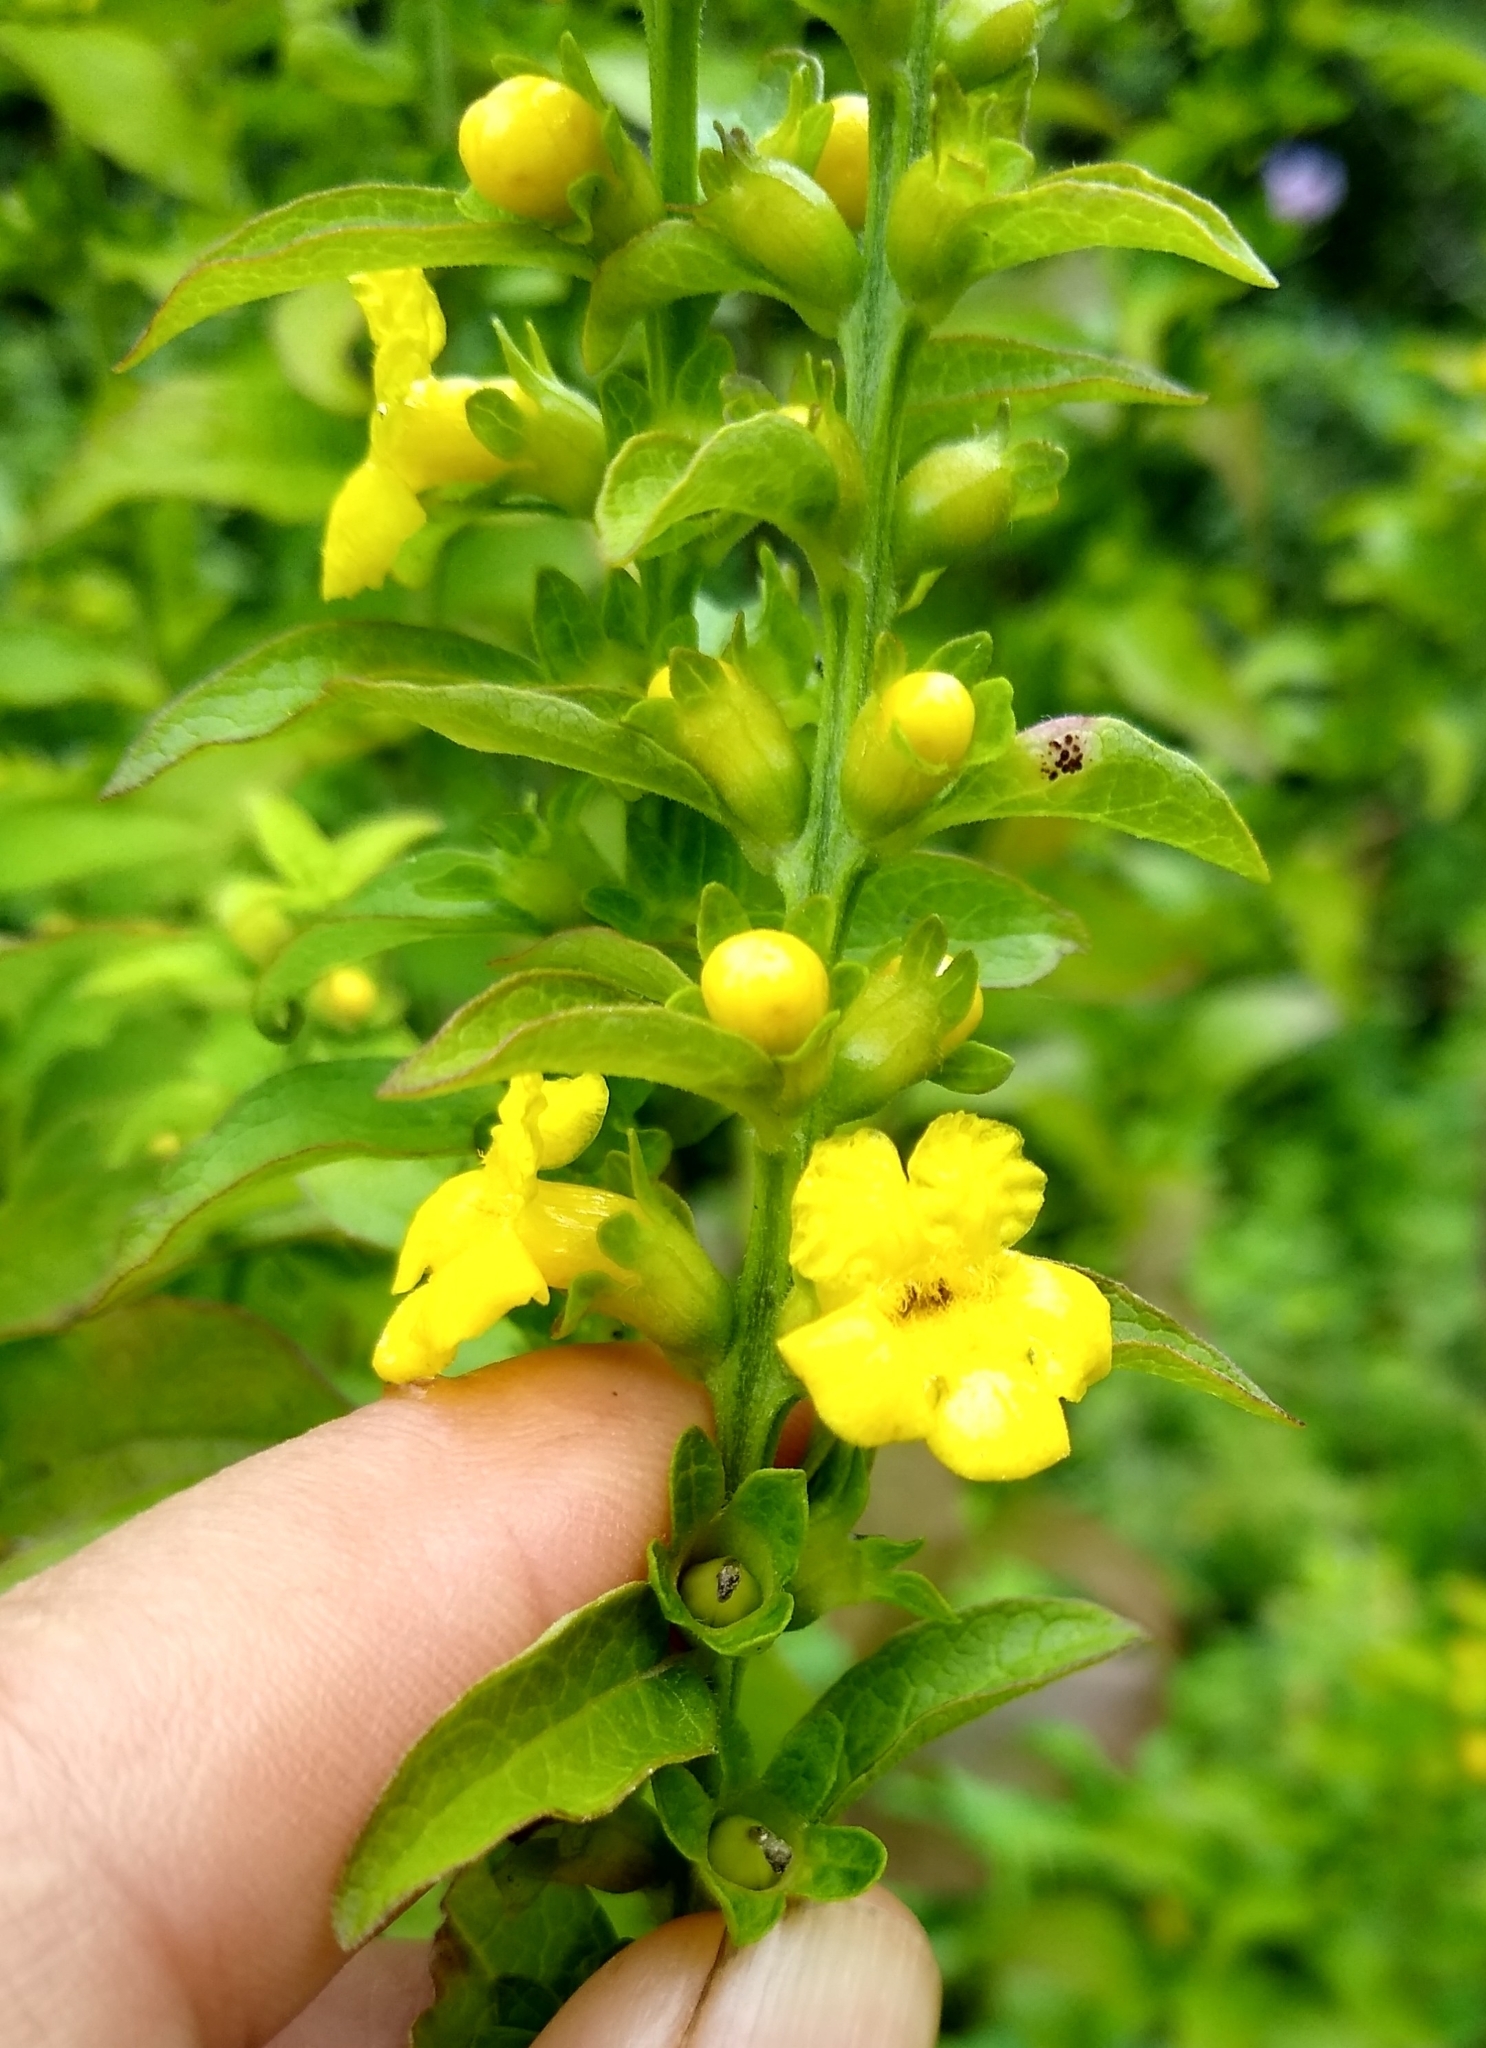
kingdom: Plantae
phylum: Tracheophyta
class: Magnoliopsida
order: Lamiales
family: Orobanchaceae
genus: Dasistoma
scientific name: Dasistoma macrophyllum
